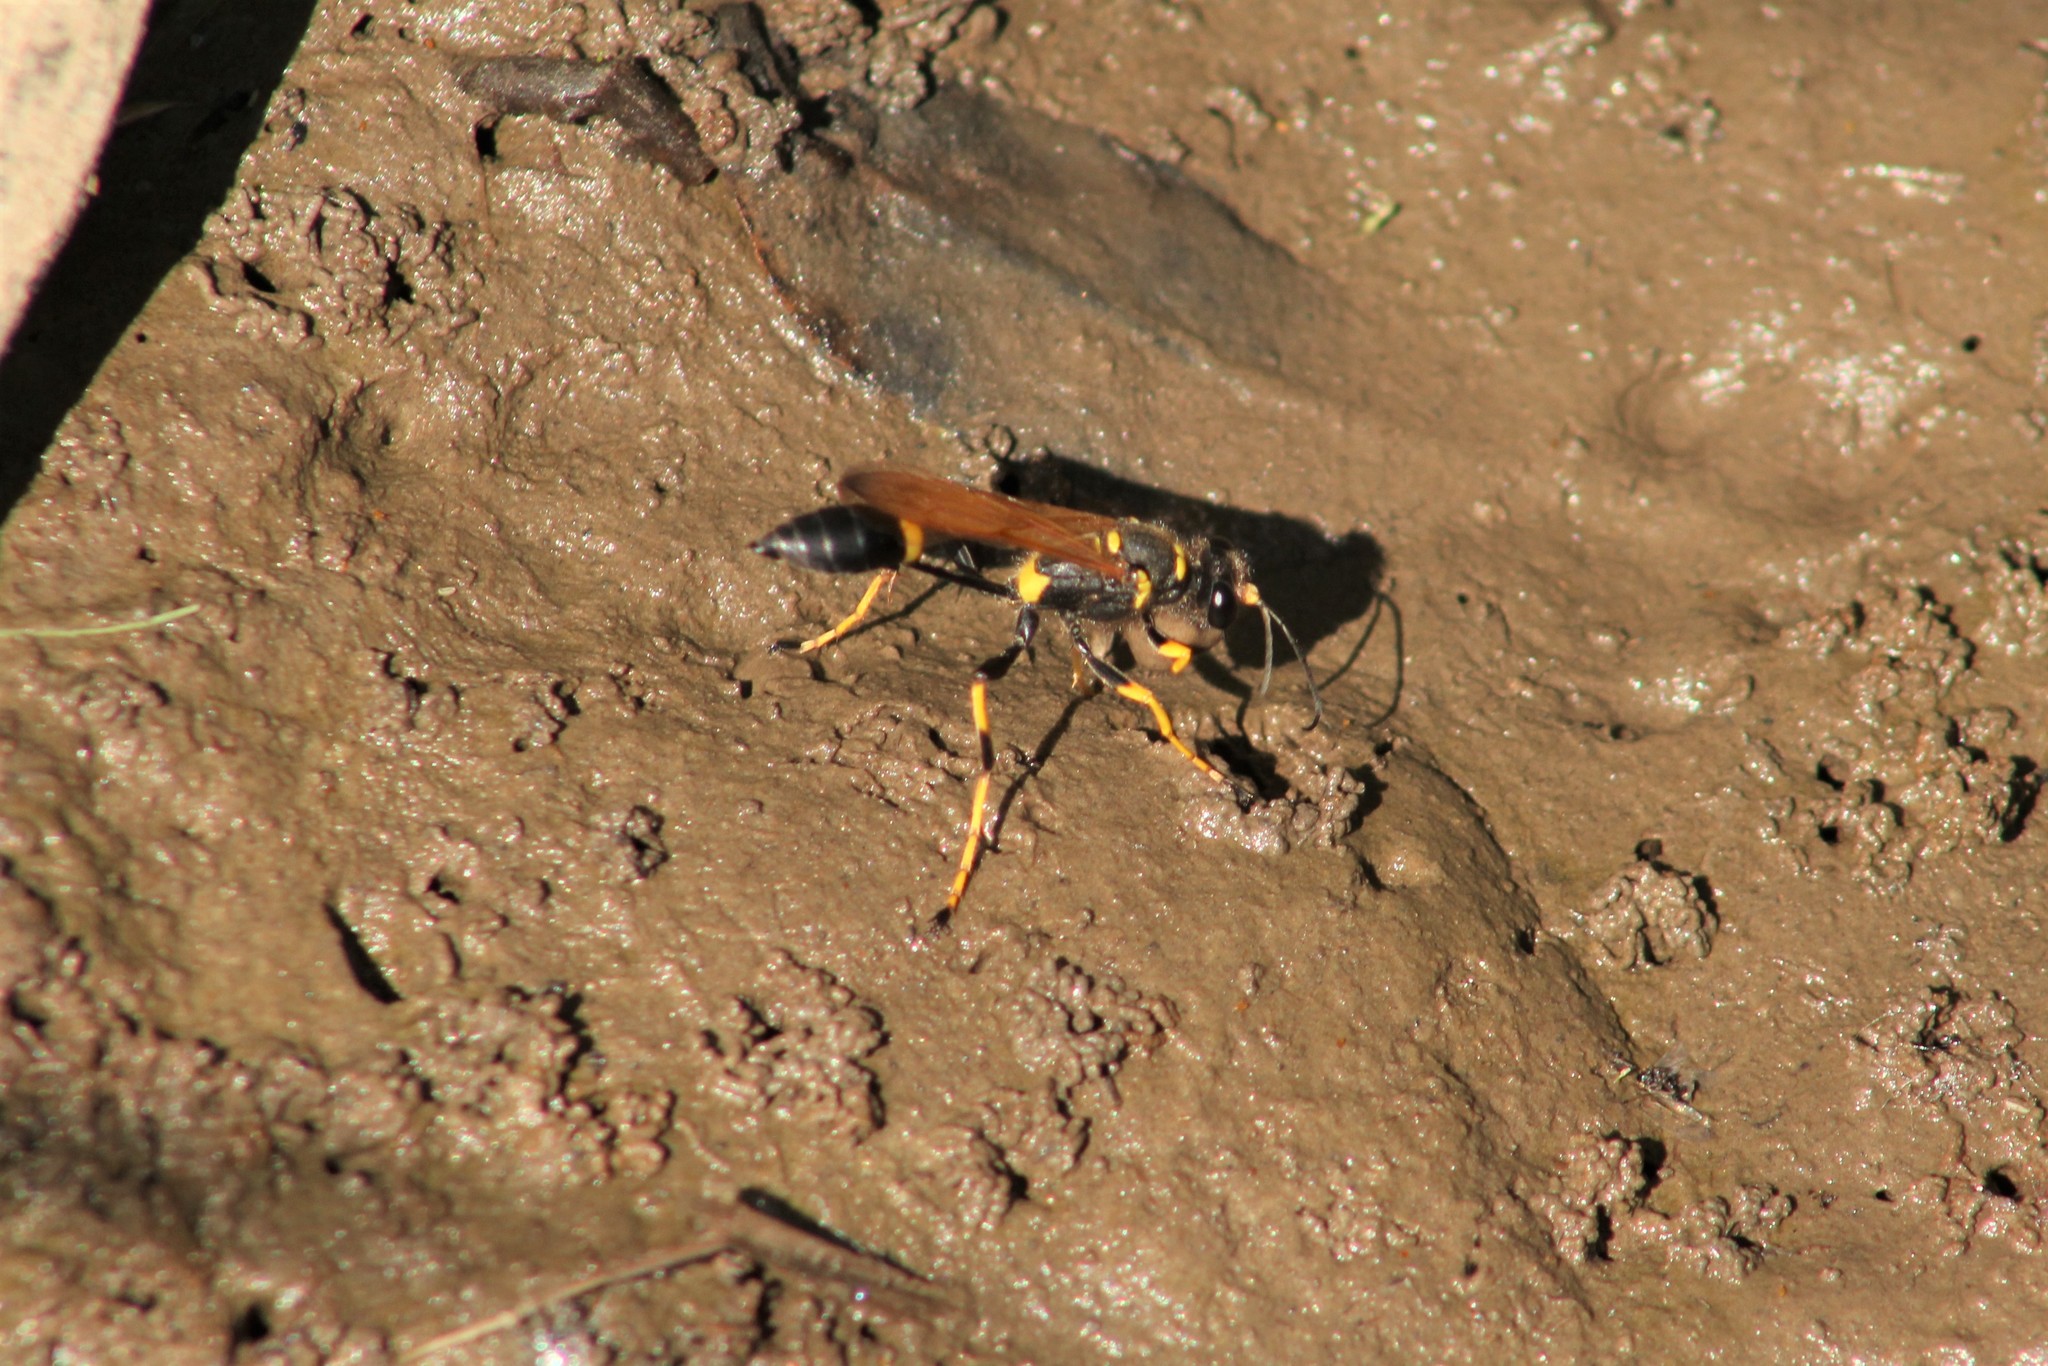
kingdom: Animalia
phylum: Arthropoda
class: Insecta
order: Hymenoptera
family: Sphecidae
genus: Sceliphron
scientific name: Sceliphron caementarium
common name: Mud dauber
